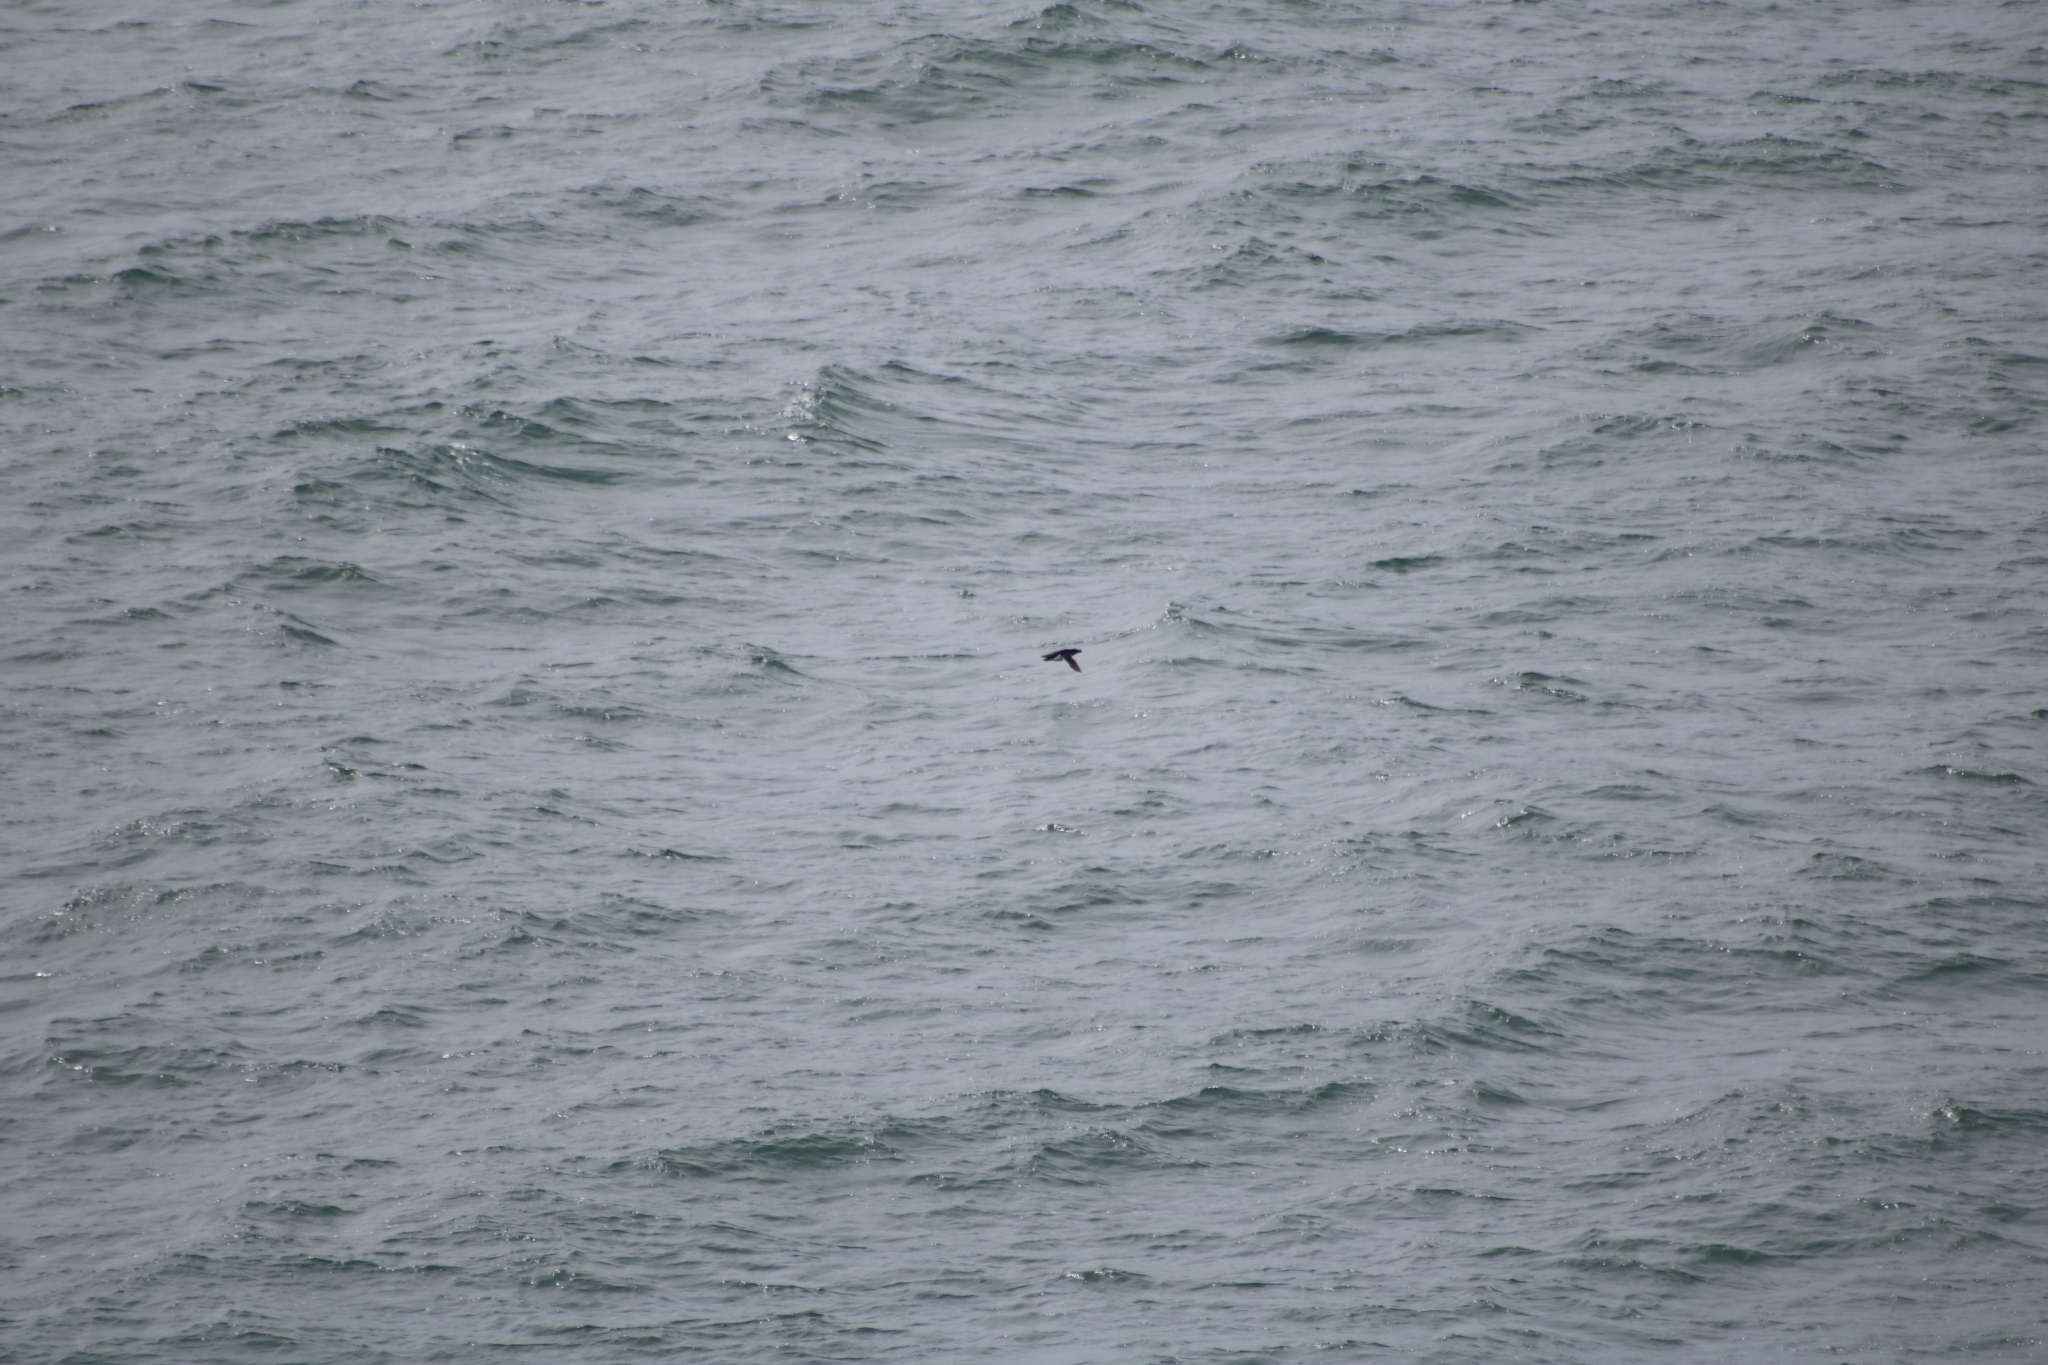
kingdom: Animalia
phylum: Chordata
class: Aves
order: Charadriiformes
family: Alcidae
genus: Alca
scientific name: Alca torda
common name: Razorbill
